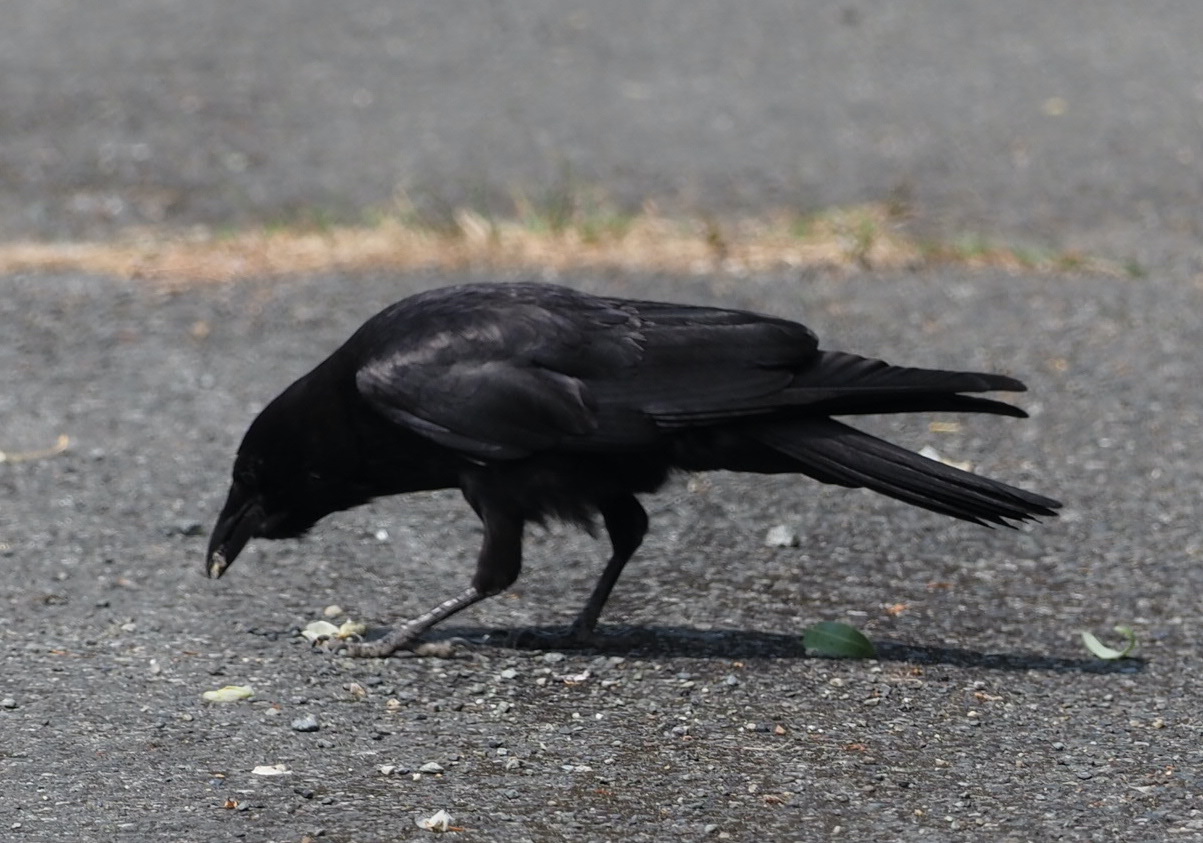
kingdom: Animalia
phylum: Chordata
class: Aves
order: Passeriformes
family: Corvidae
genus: Corvus
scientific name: Corvus brachyrhynchos
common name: American crow
